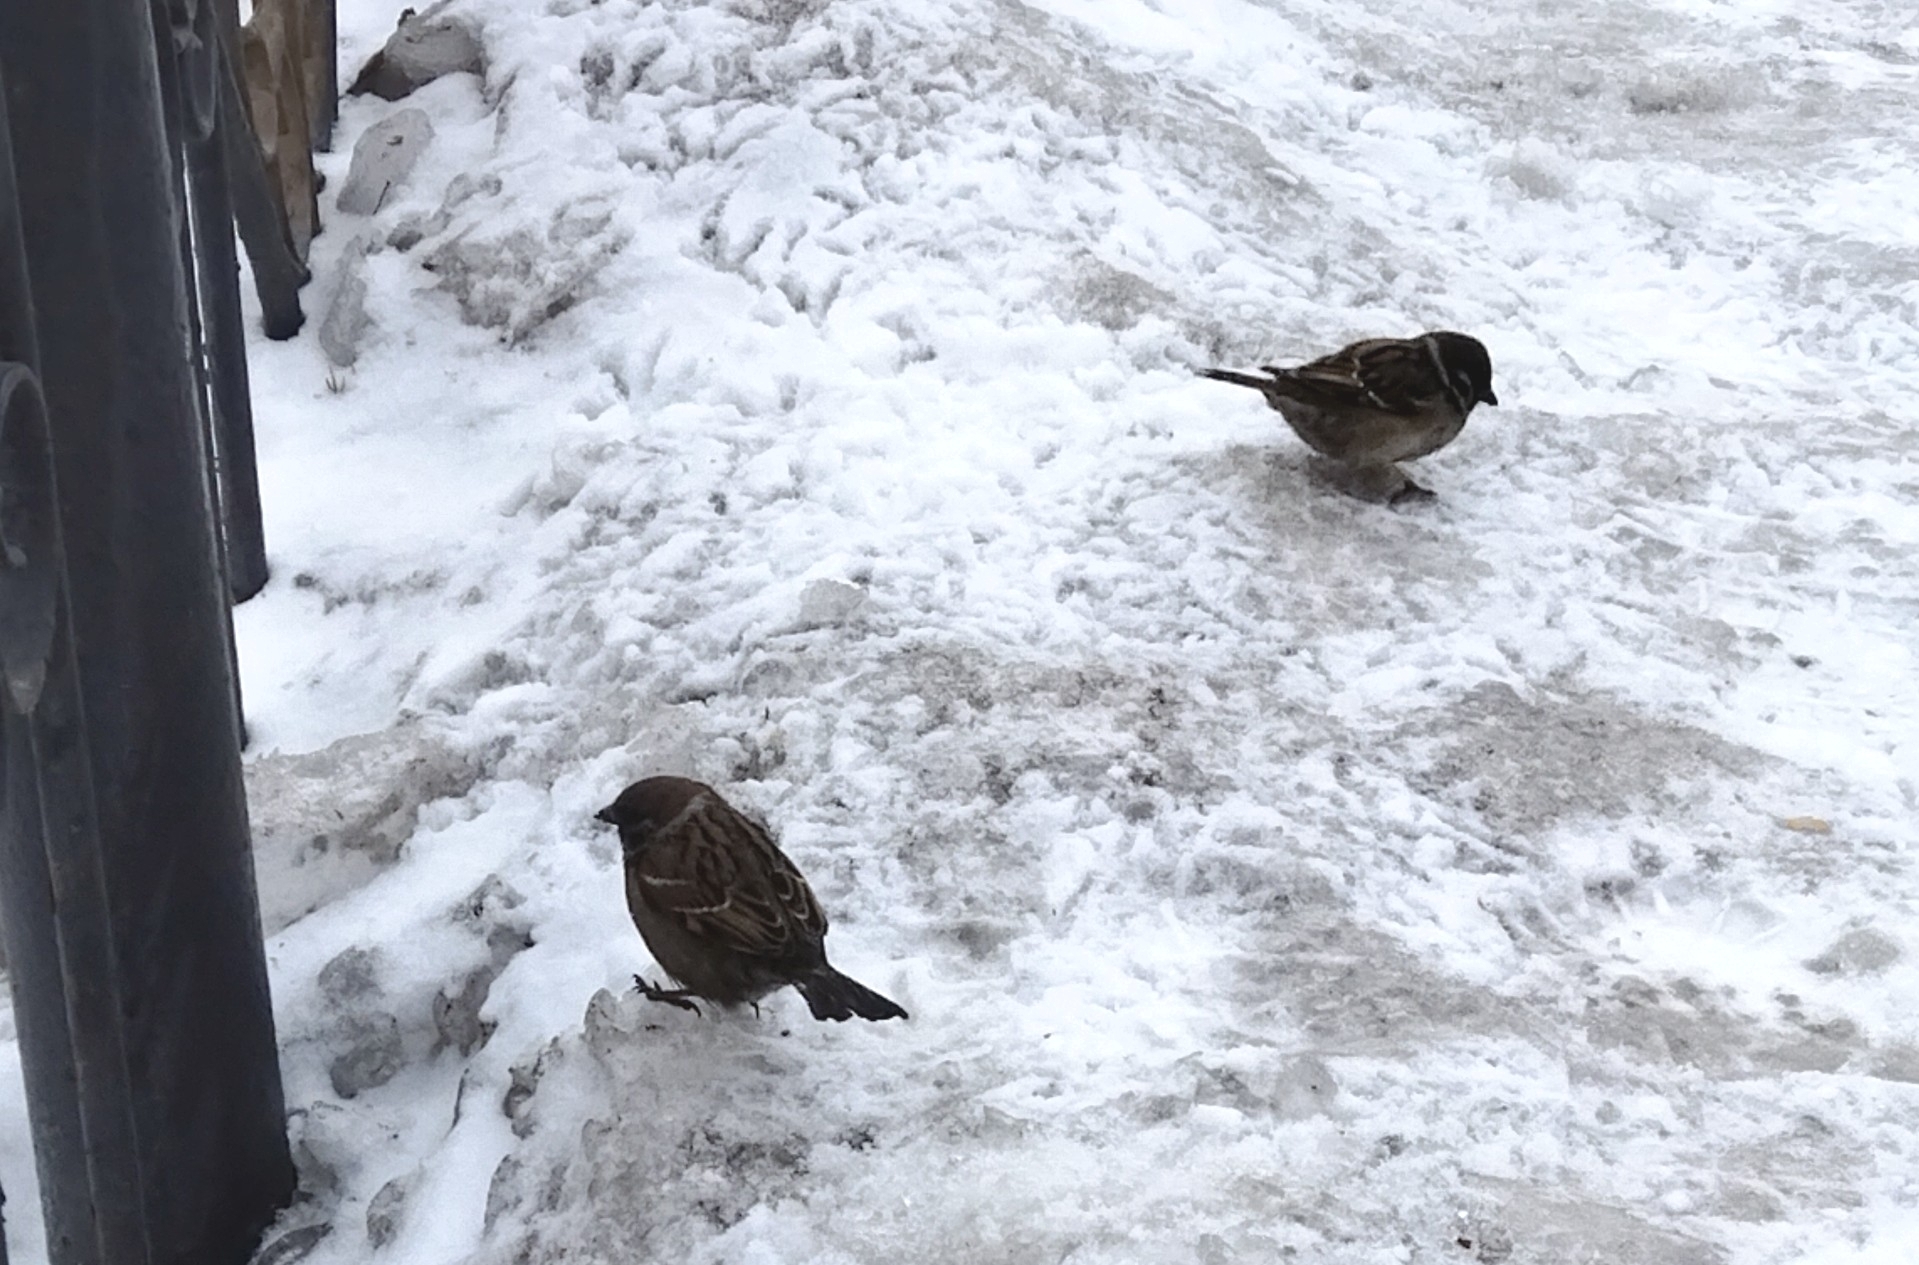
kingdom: Animalia
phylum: Chordata
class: Aves
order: Passeriformes
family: Passeridae
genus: Passer
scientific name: Passer montanus
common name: Eurasian tree sparrow
